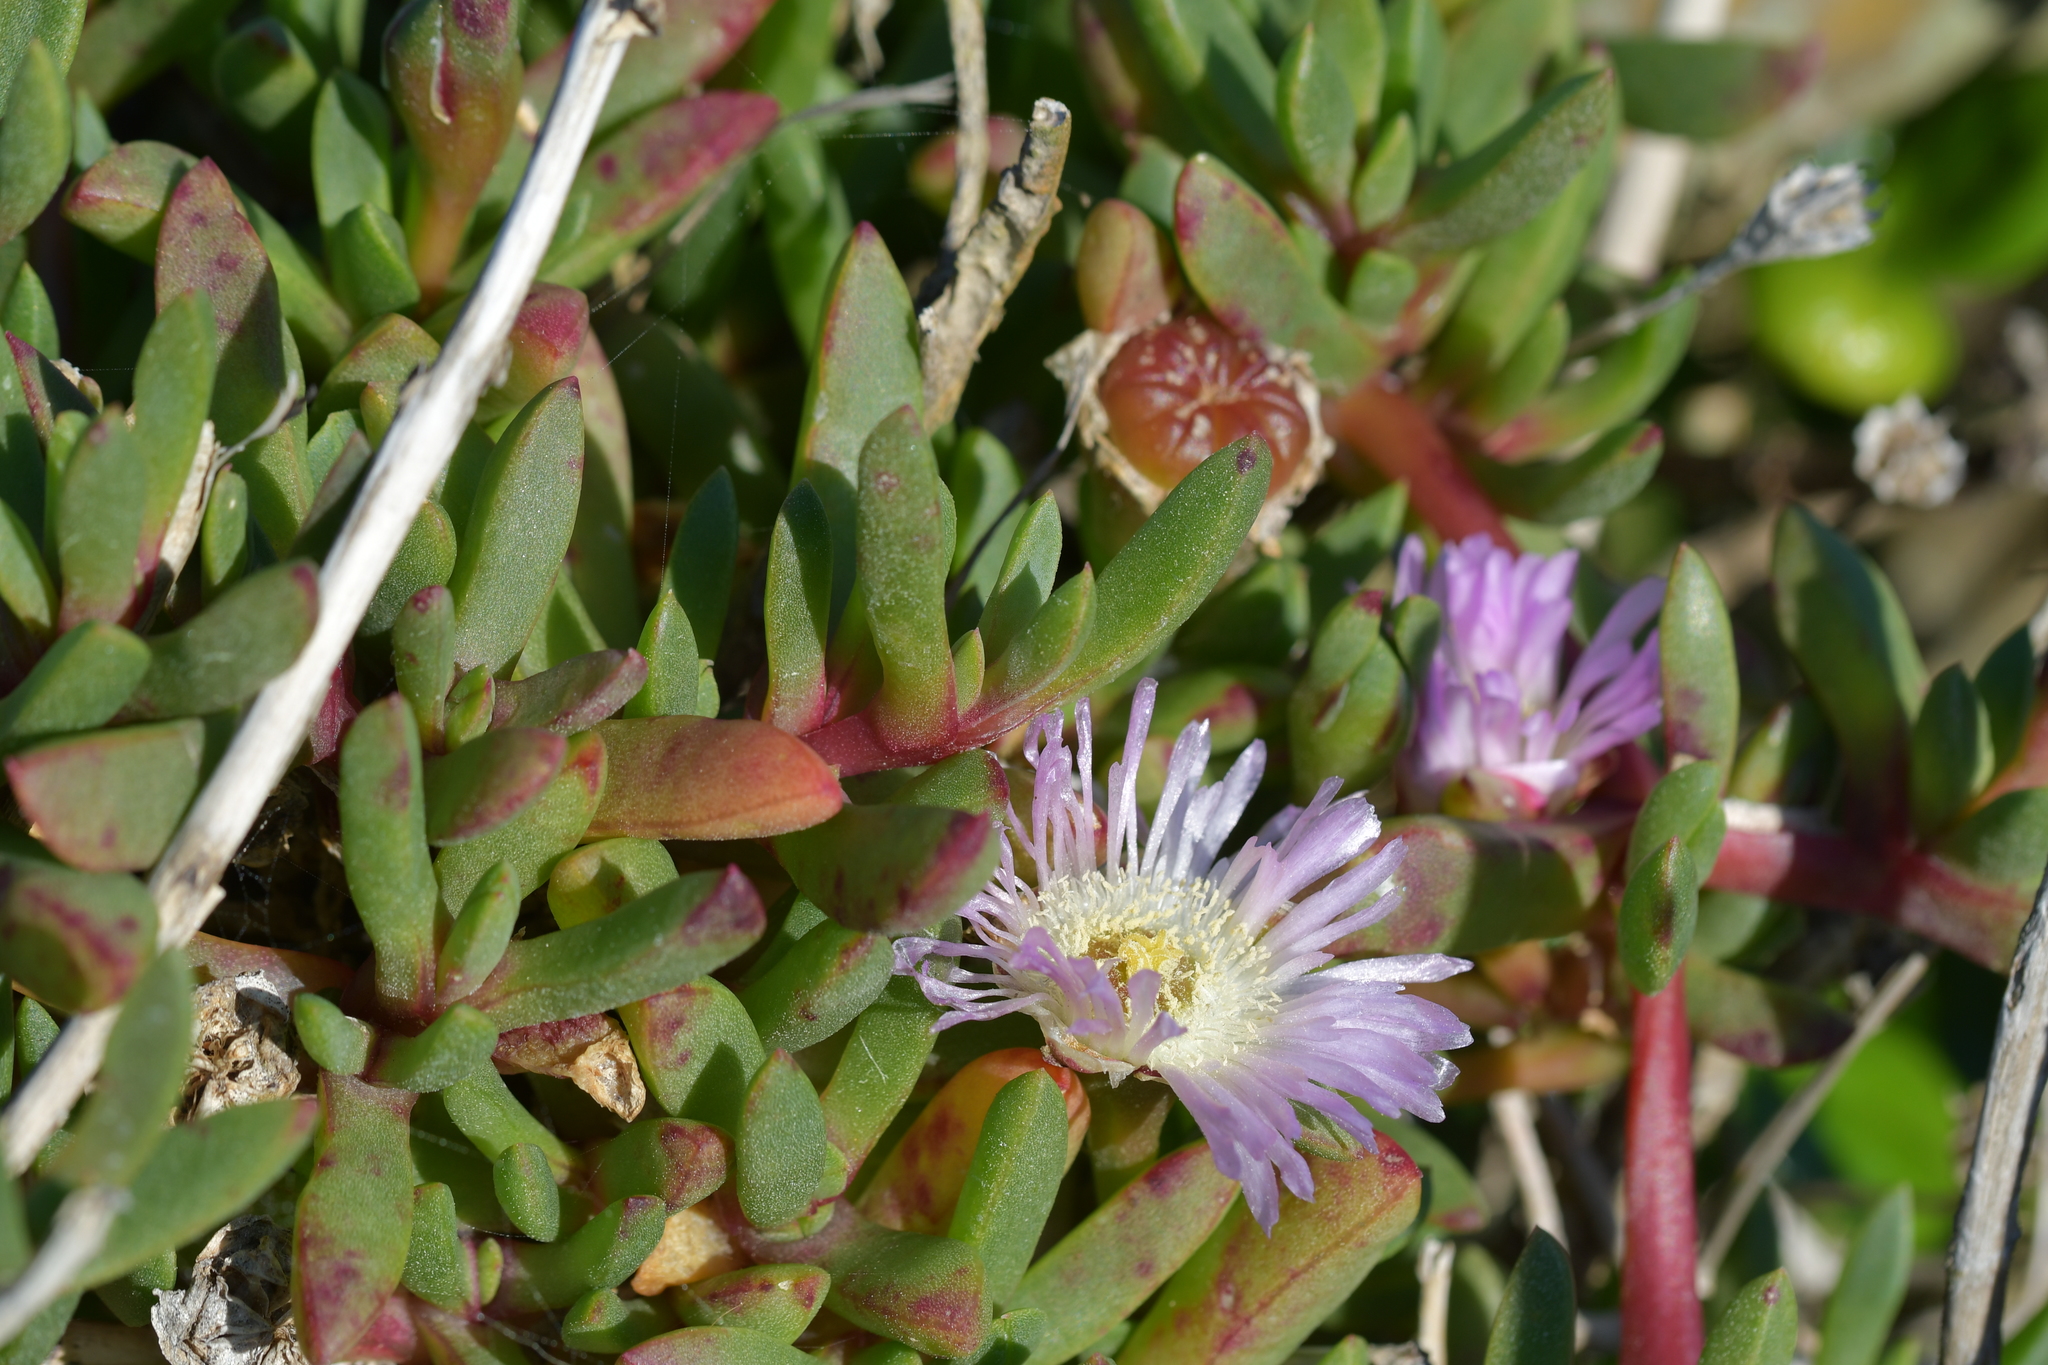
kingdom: Plantae
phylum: Tracheophyta
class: Magnoliopsida
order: Caryophyllales
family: Aizoaceae
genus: Disphyma
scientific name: Disphyma australe
